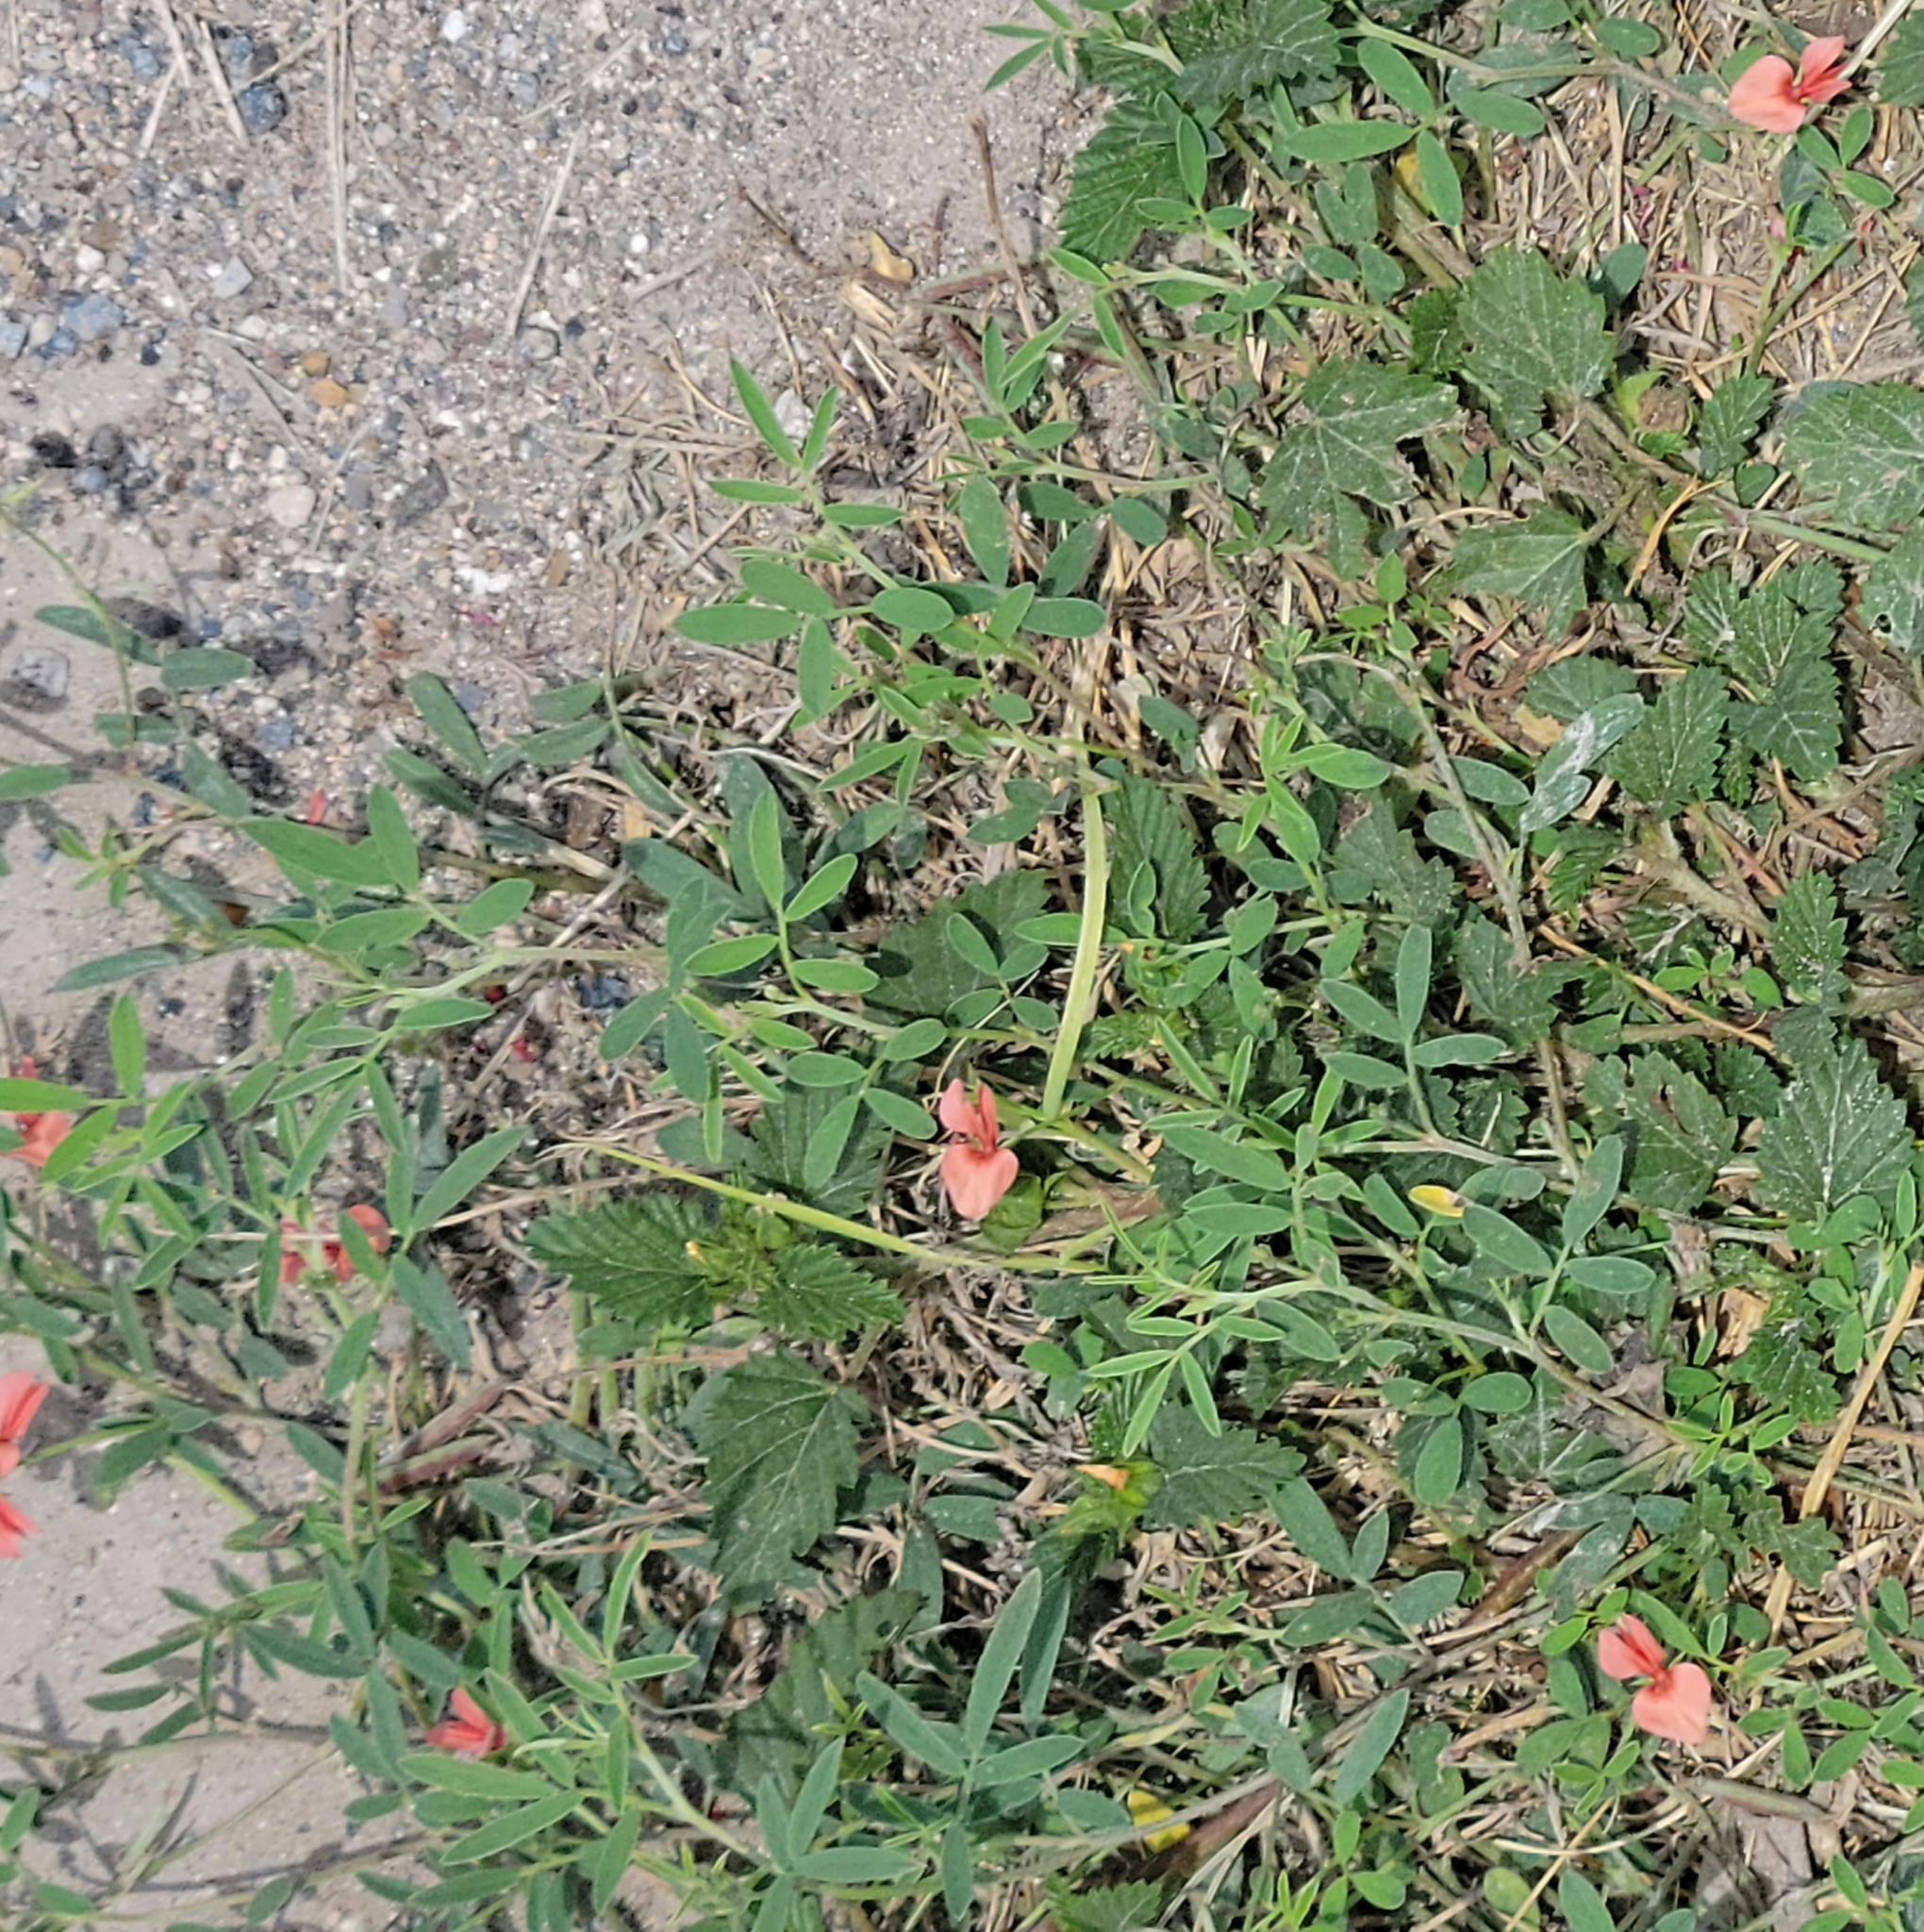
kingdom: Plantae
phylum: Tracheophyta
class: Magnoliopsida
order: Fabales
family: Fabaceae
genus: Indigofera
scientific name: Indigofera miniata
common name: Coast indigo
